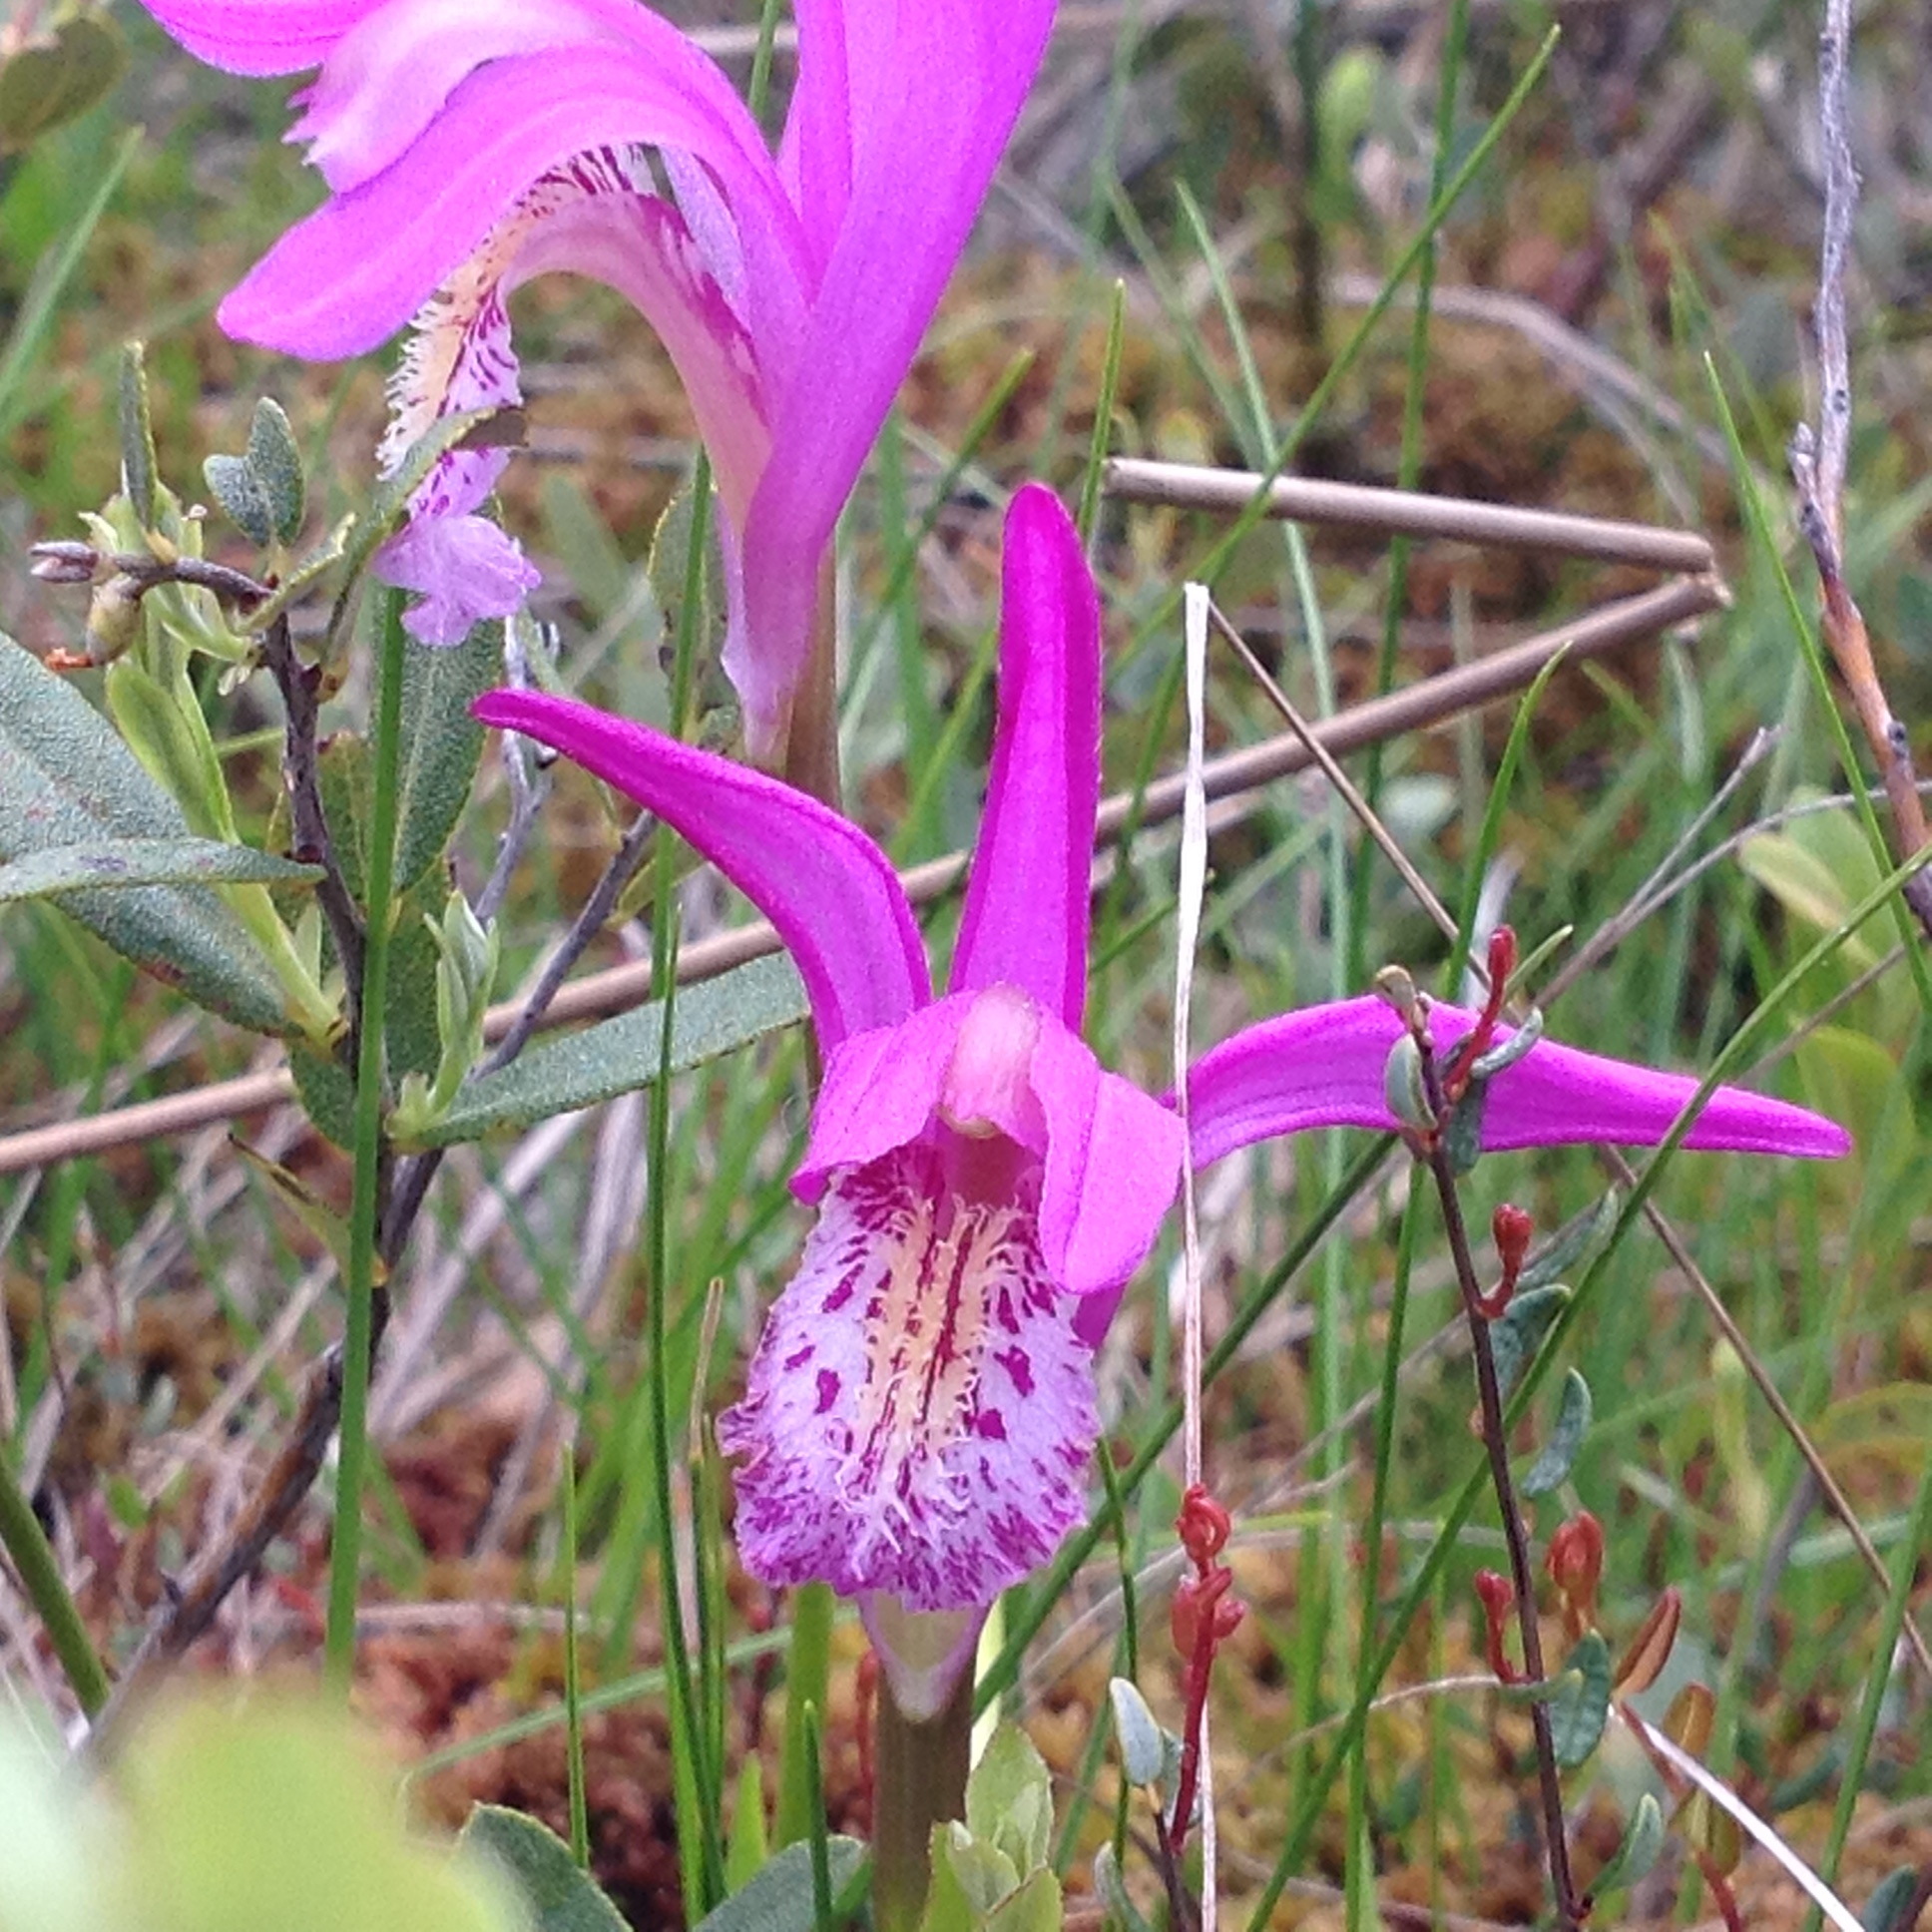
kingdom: Plantae
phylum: Tracheophyta
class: Liliopsida
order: Asparagales
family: Orchidaceae
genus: Arethusa
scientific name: Arethusa bulbosa
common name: Arethusa
